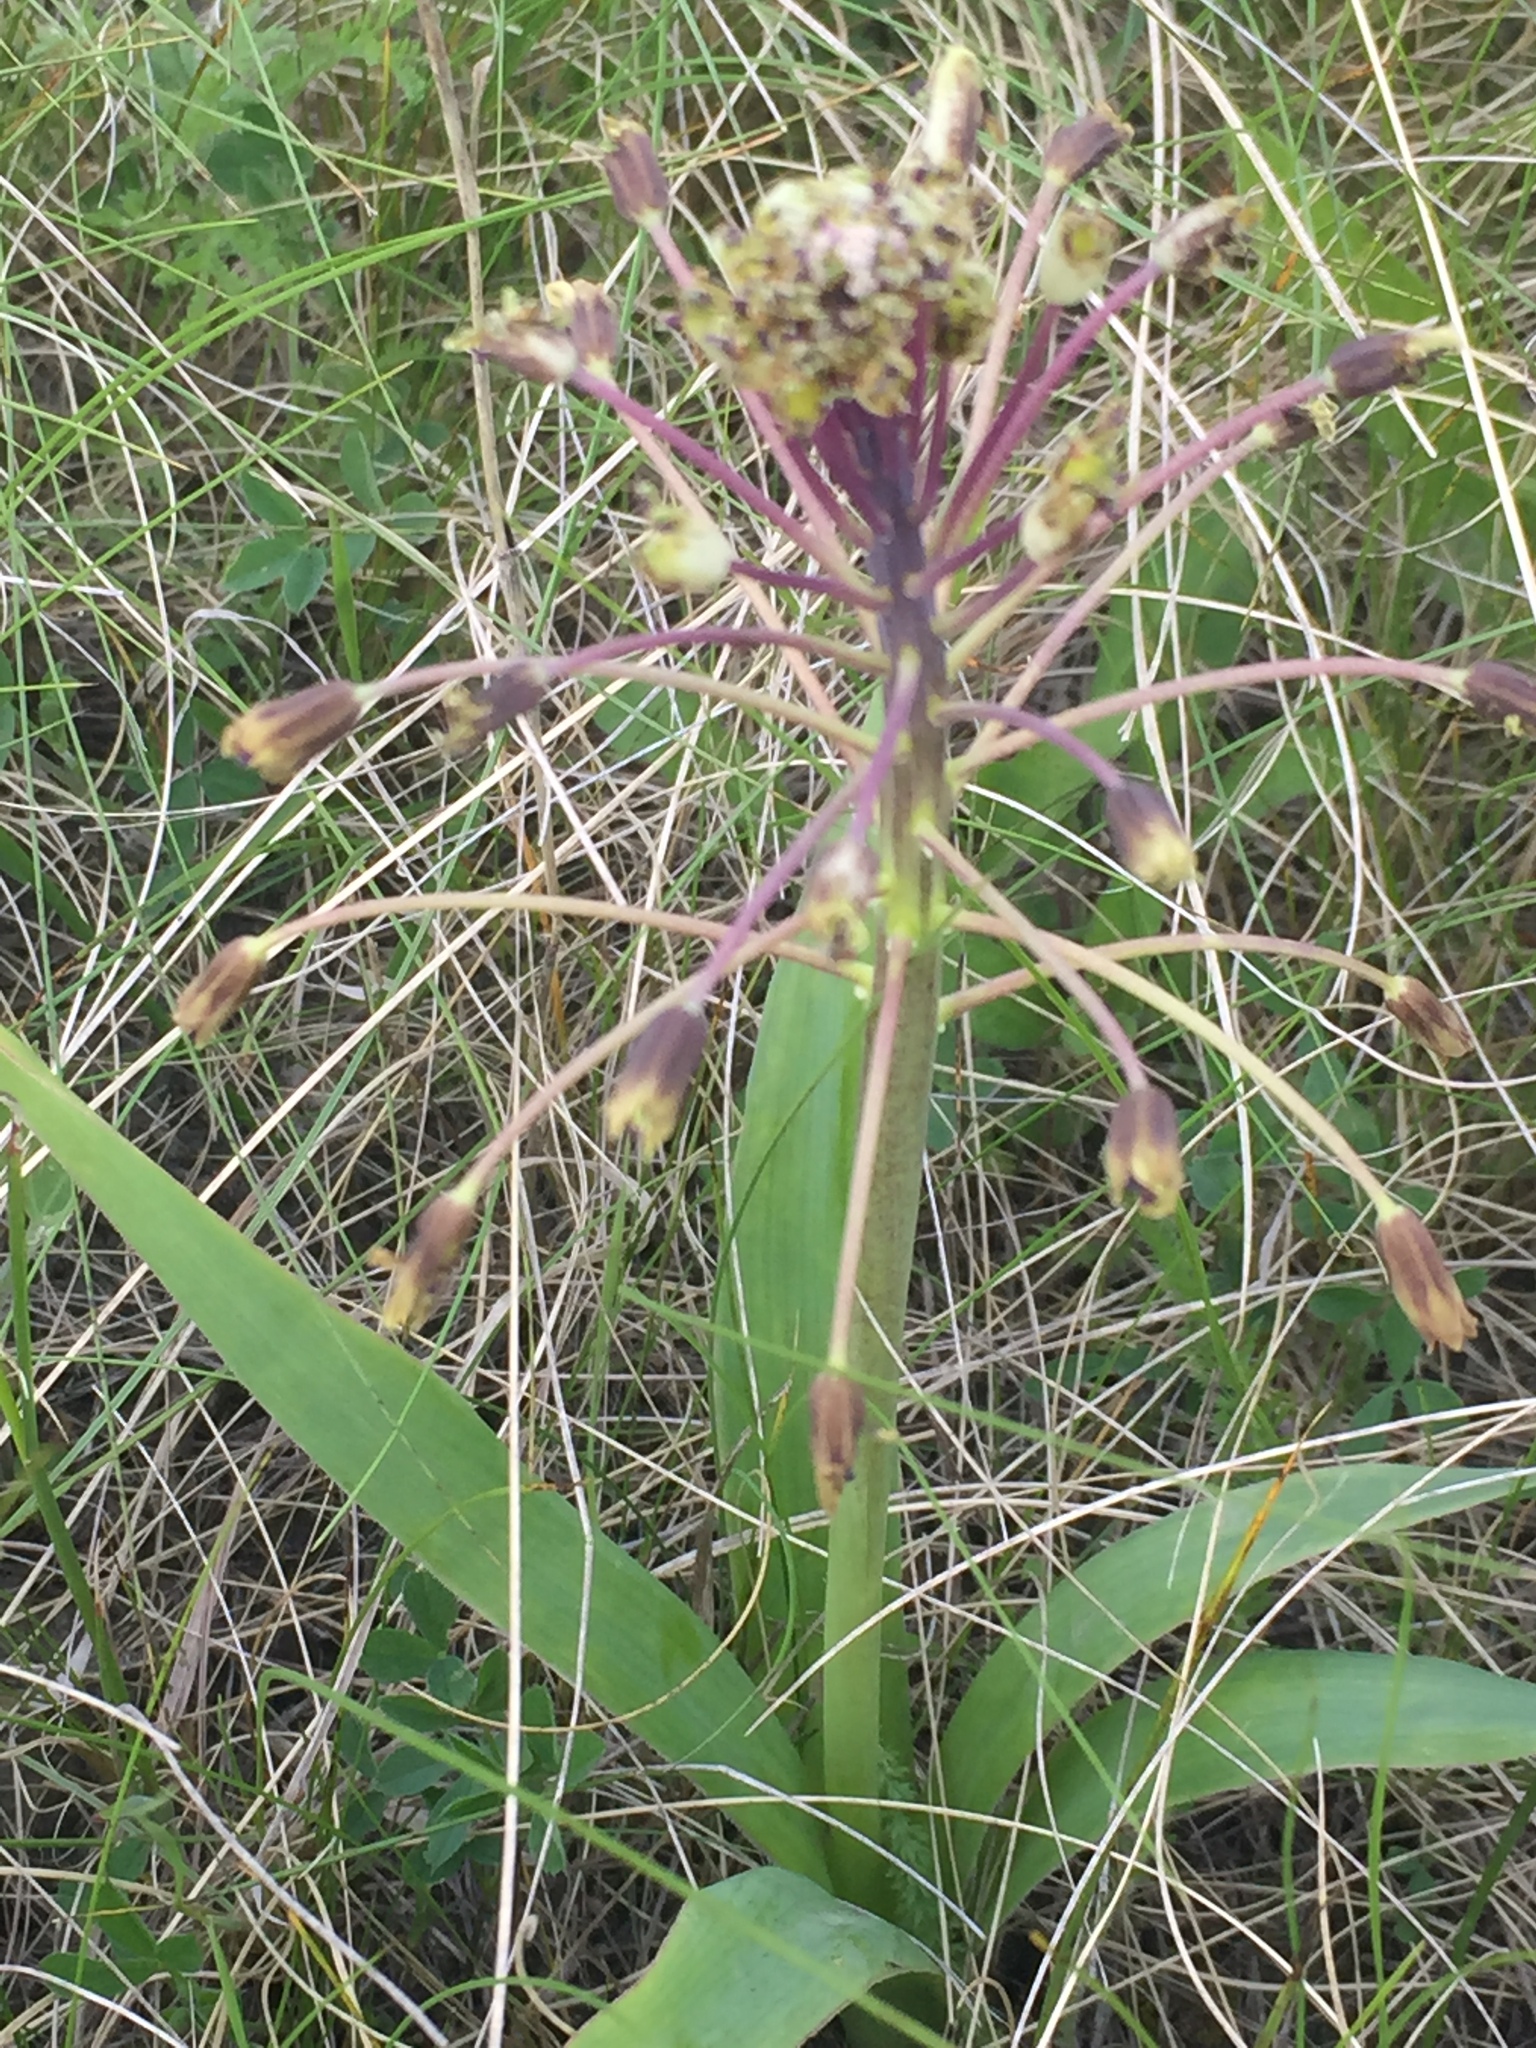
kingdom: Plantae
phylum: Tracheophyta
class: Liliopsida
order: Asparagales
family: Asparagaceae
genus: Bellevalia
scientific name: Bellevalia speciosa
